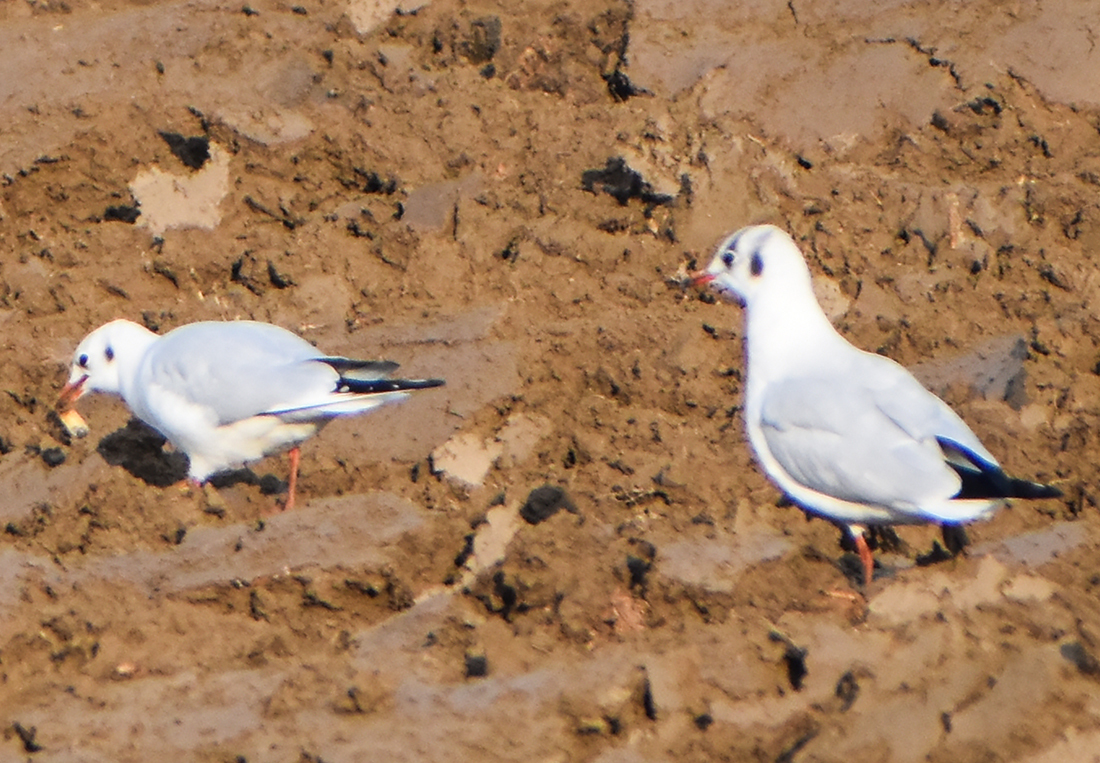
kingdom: Animalia
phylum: Chordata
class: Aves
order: Charadriiformes
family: Laridae
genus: Chroicocephalus
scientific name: Chroicocephalus ridibundus
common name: Black-headed gull
